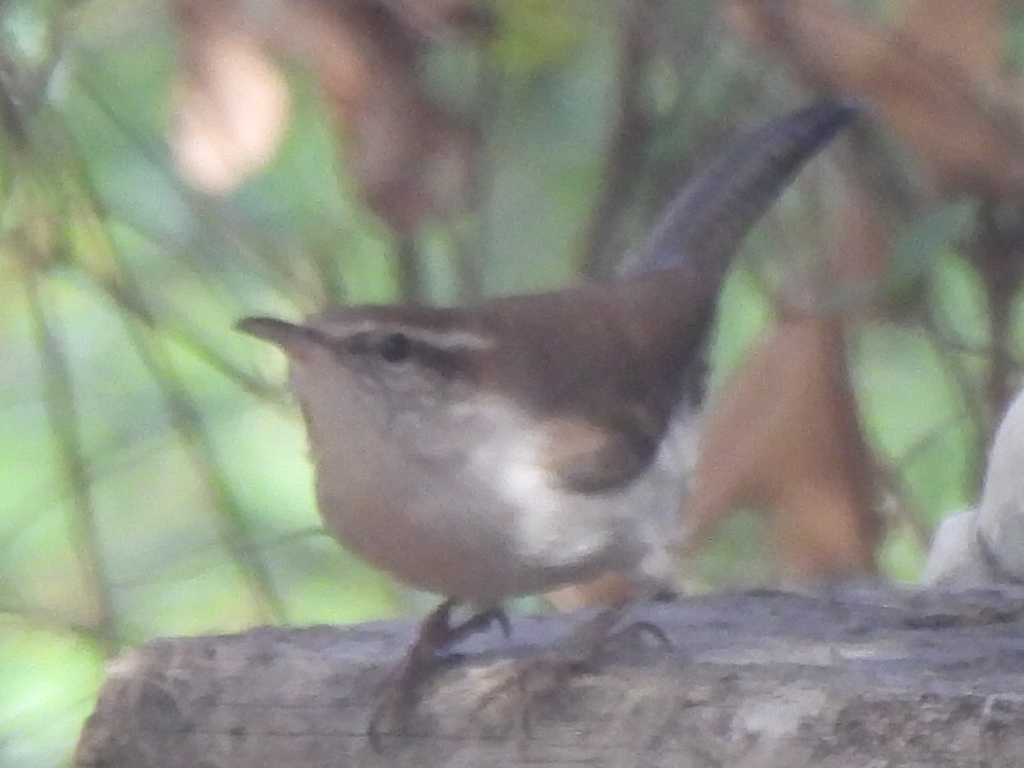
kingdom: Animalia
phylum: Chordata
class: Aves
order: Passeriformes
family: Troglodytidae
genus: Thryomanes
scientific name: Thryomanes bewickii
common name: Bewick's wren
